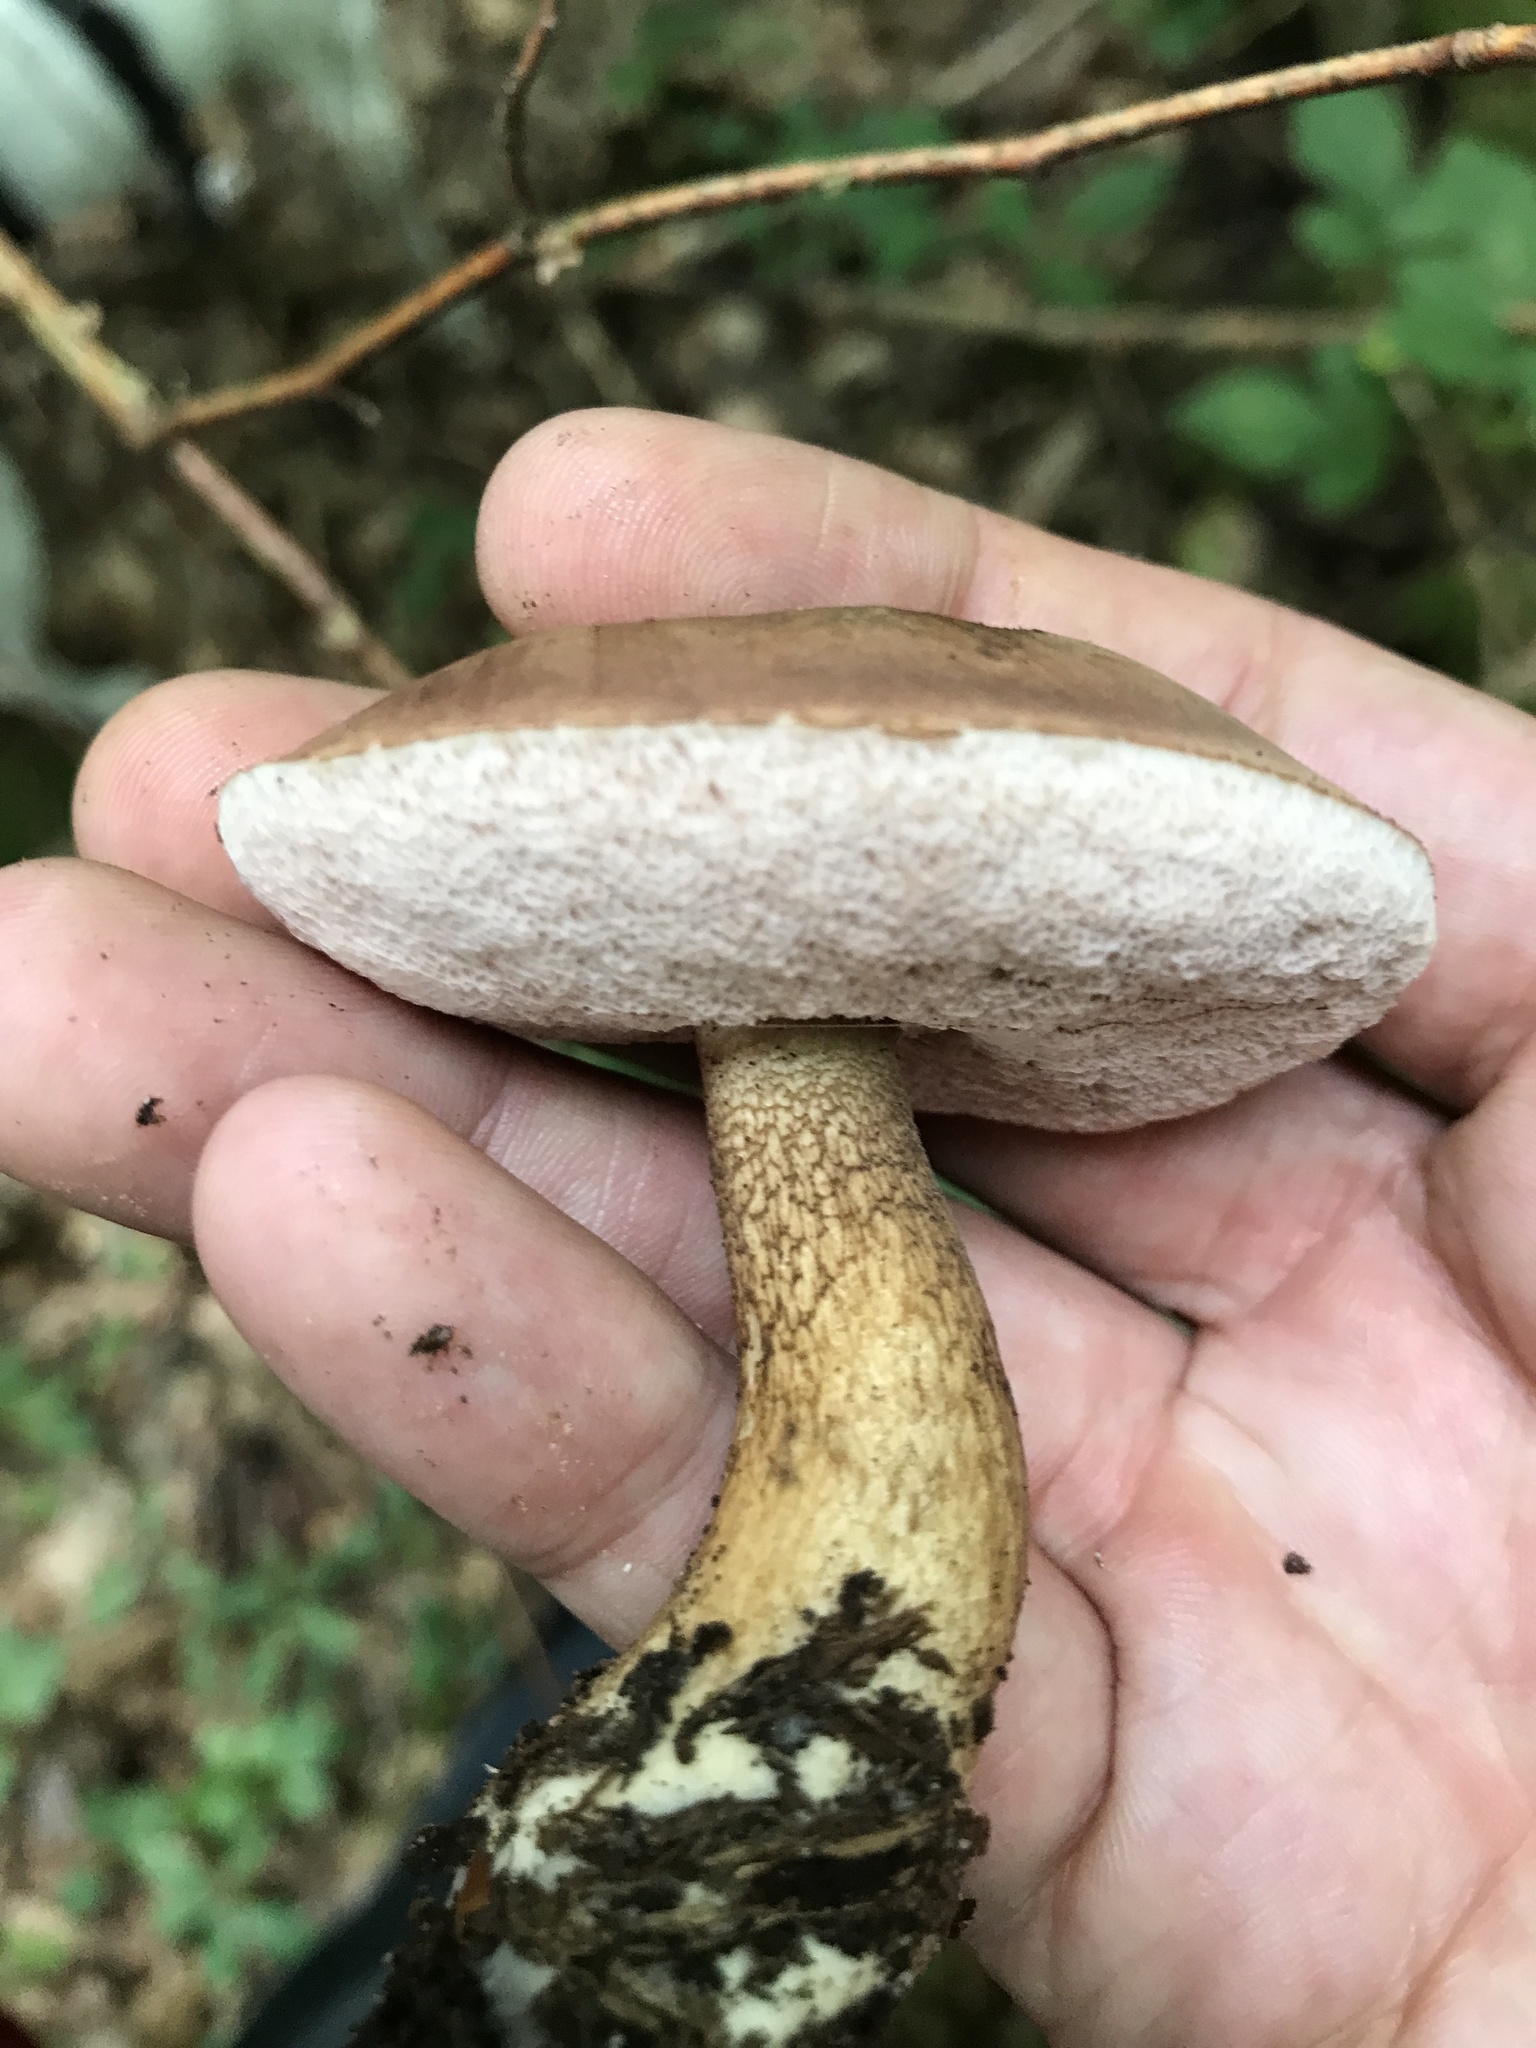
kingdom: Fungi
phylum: Basidiomycota
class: Agaricomycetes
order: Boletales
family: Boletaceae
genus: Tylopilus
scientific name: Tylopilus felleus
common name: Bitter bolete
